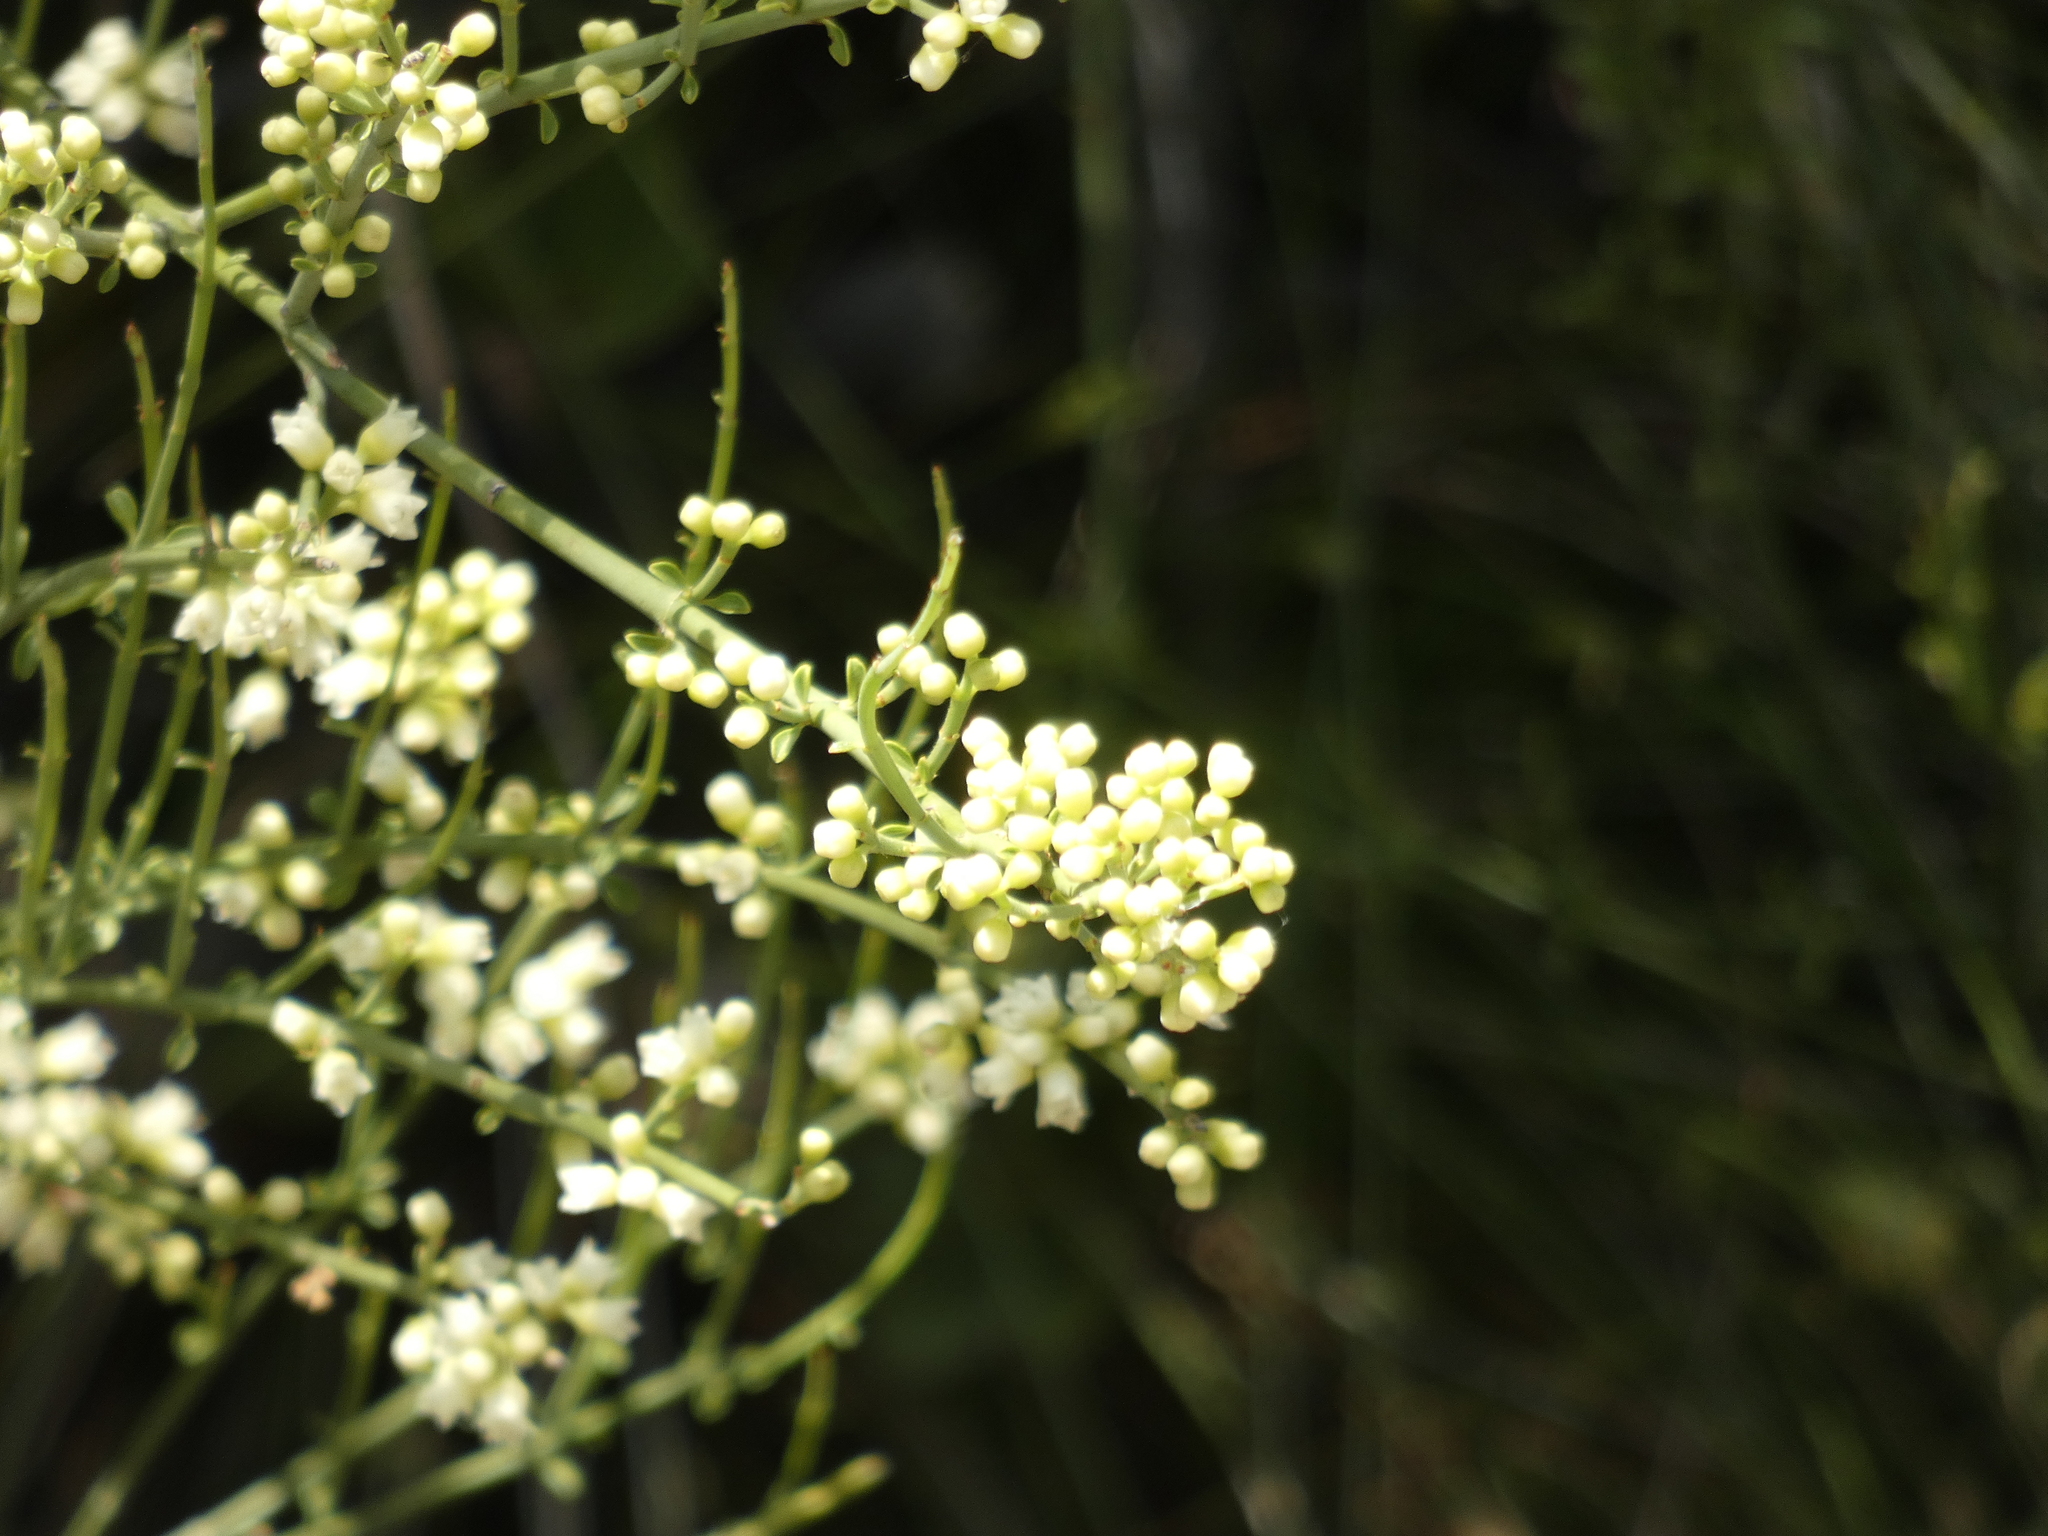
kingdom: Plantae
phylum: Tracheophyta
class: Magnoliopsida
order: Rosales
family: Rhamnaceae
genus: Retanilla
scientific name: Retanilla ephedra
